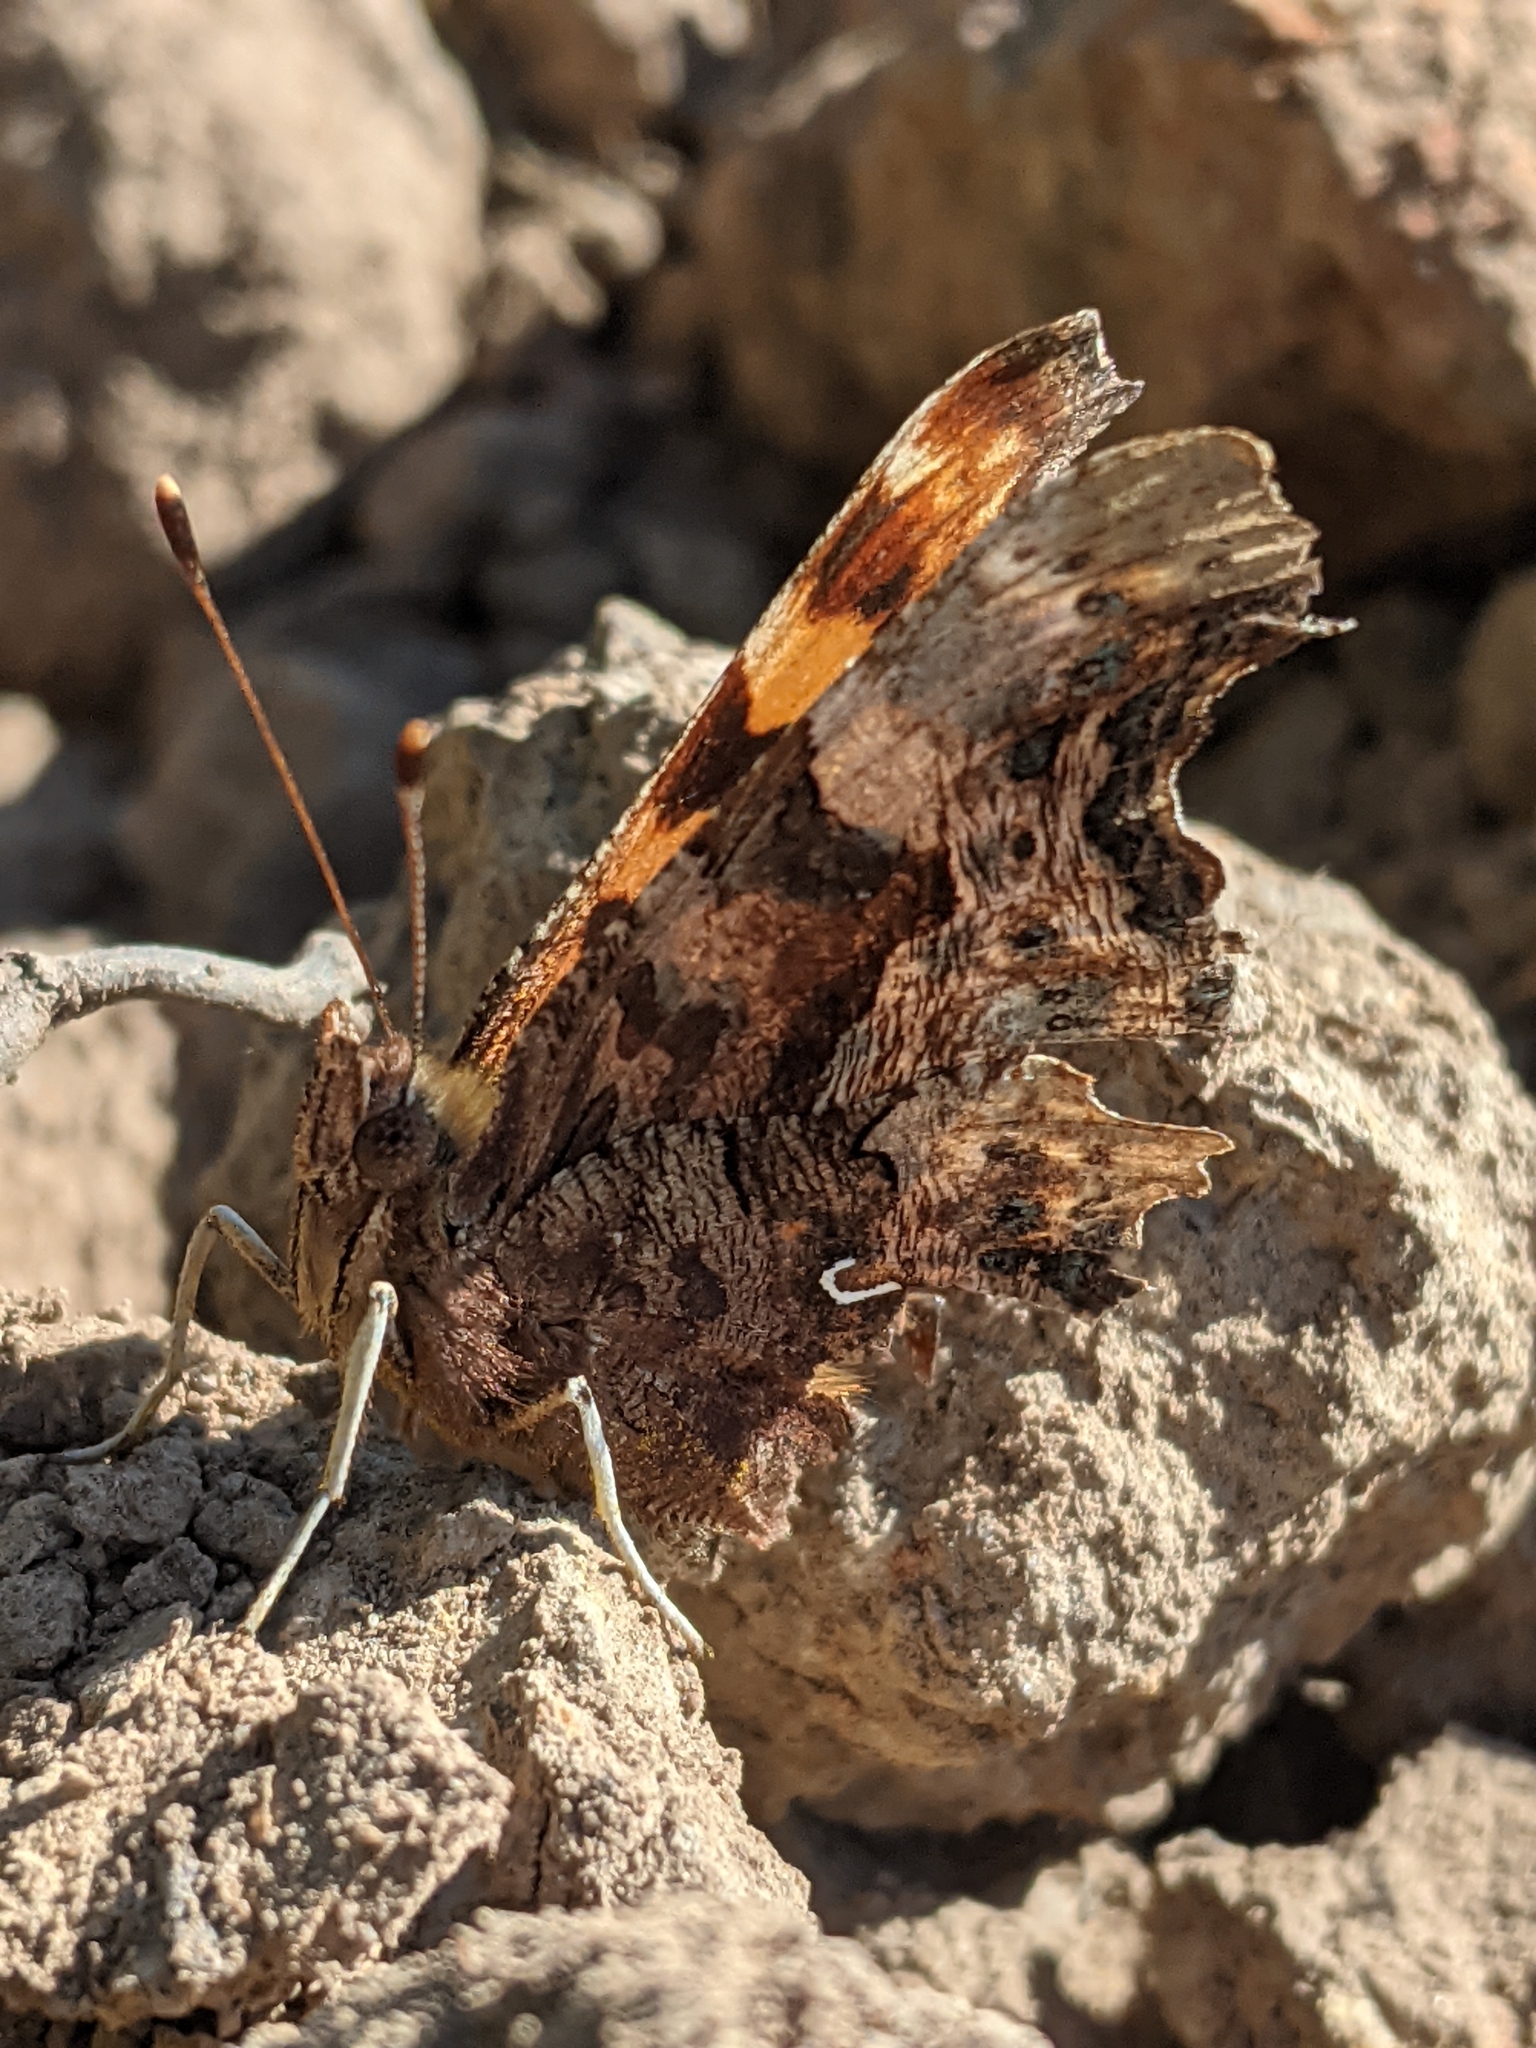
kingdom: Animalia
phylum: Arthropoda
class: Insecta
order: Lepidoptera
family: Nymphalidae
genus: Polygonia
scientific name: Polygonia c-album
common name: Comma
